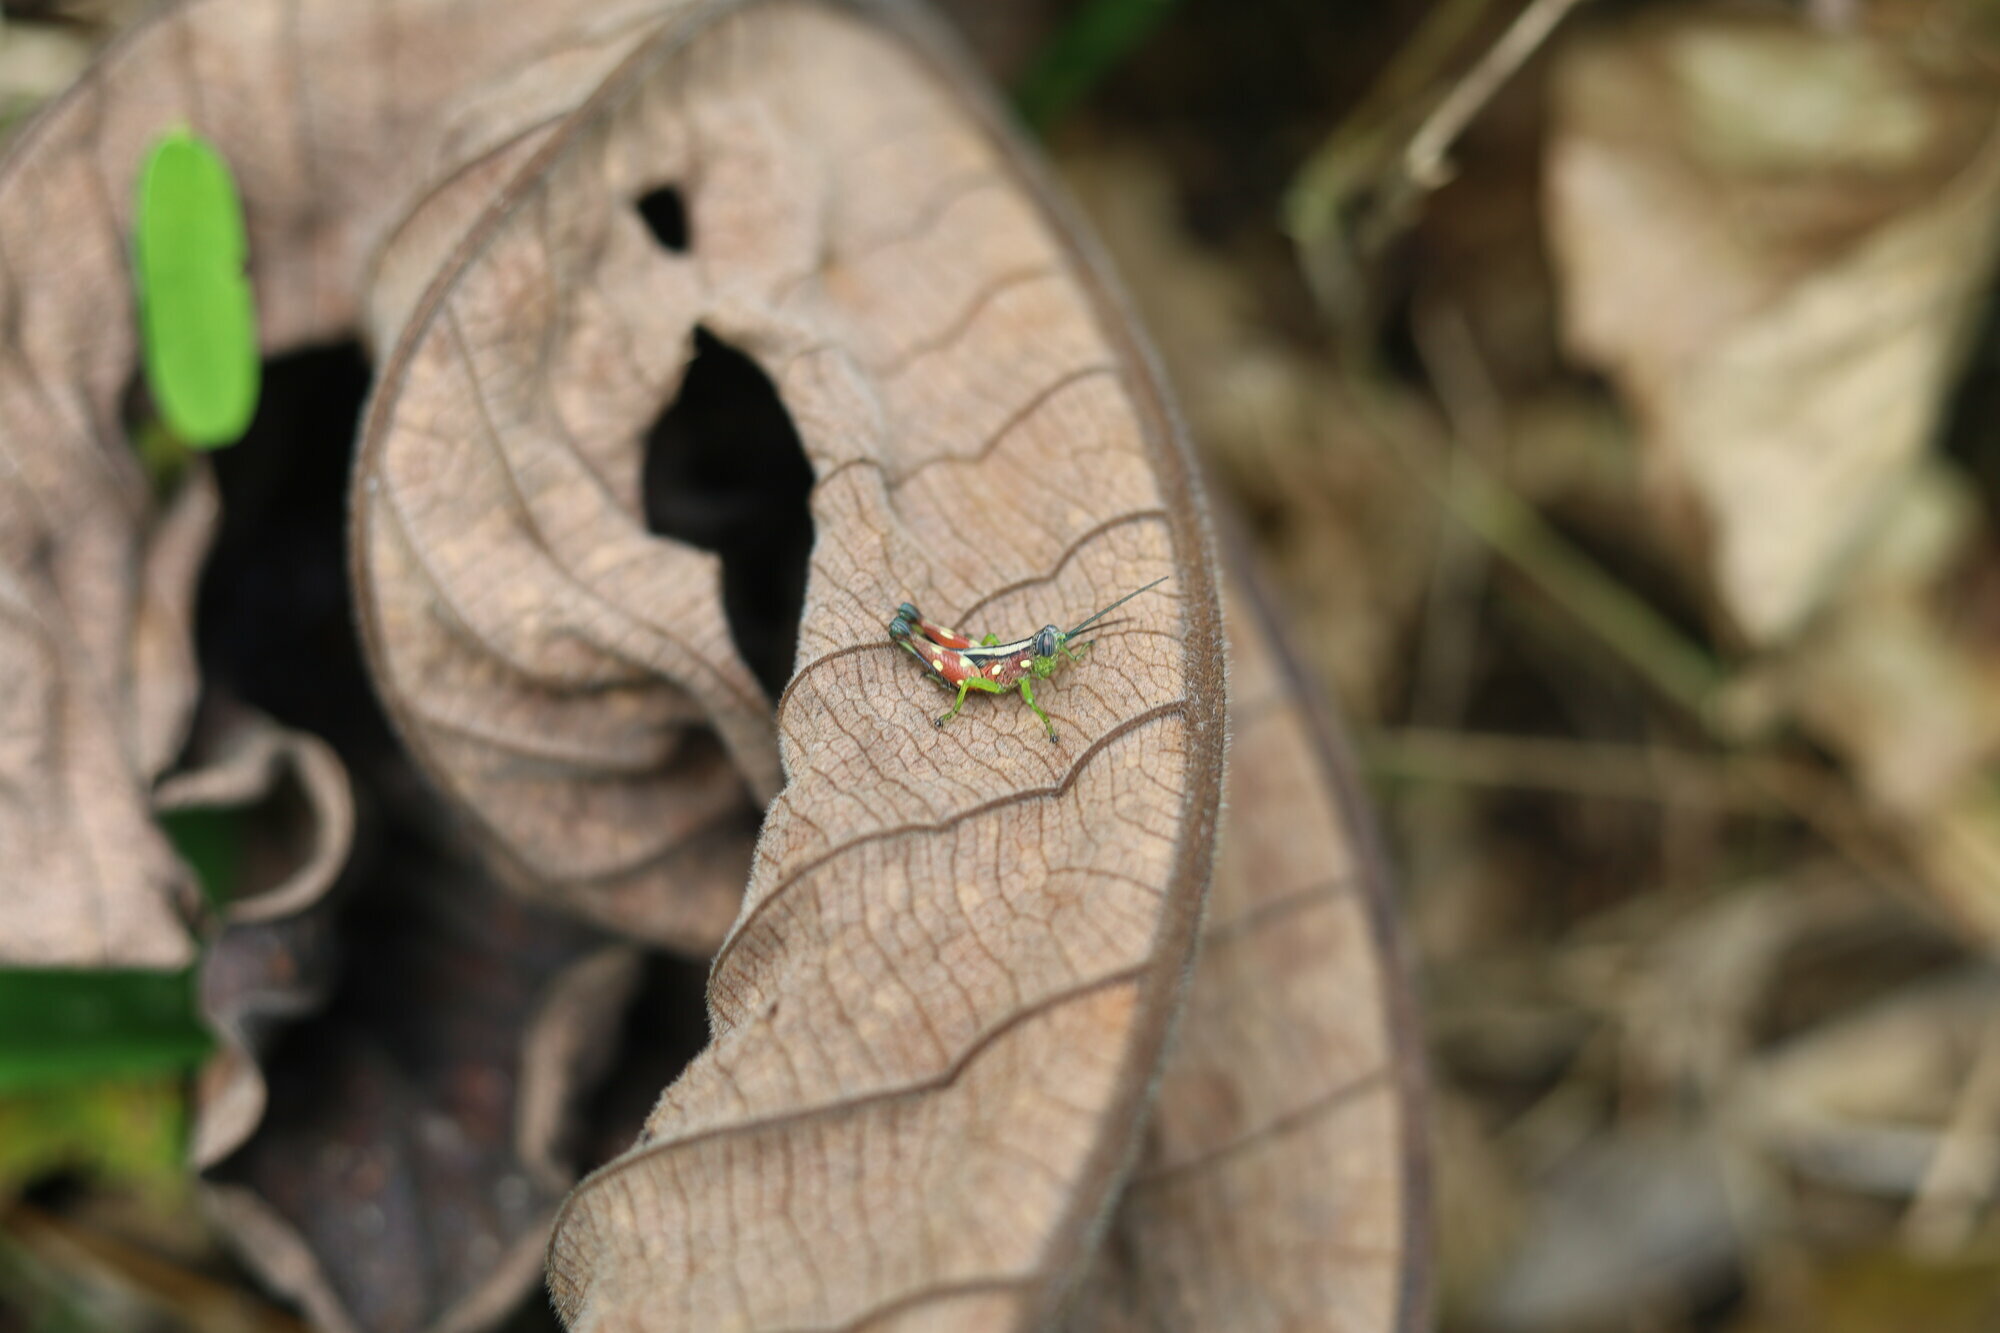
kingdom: Animalia
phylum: Arthropoda
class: Insecta
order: Orthoptera
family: Acrididae
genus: Syntomacris
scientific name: Syntomacris guttulosa
